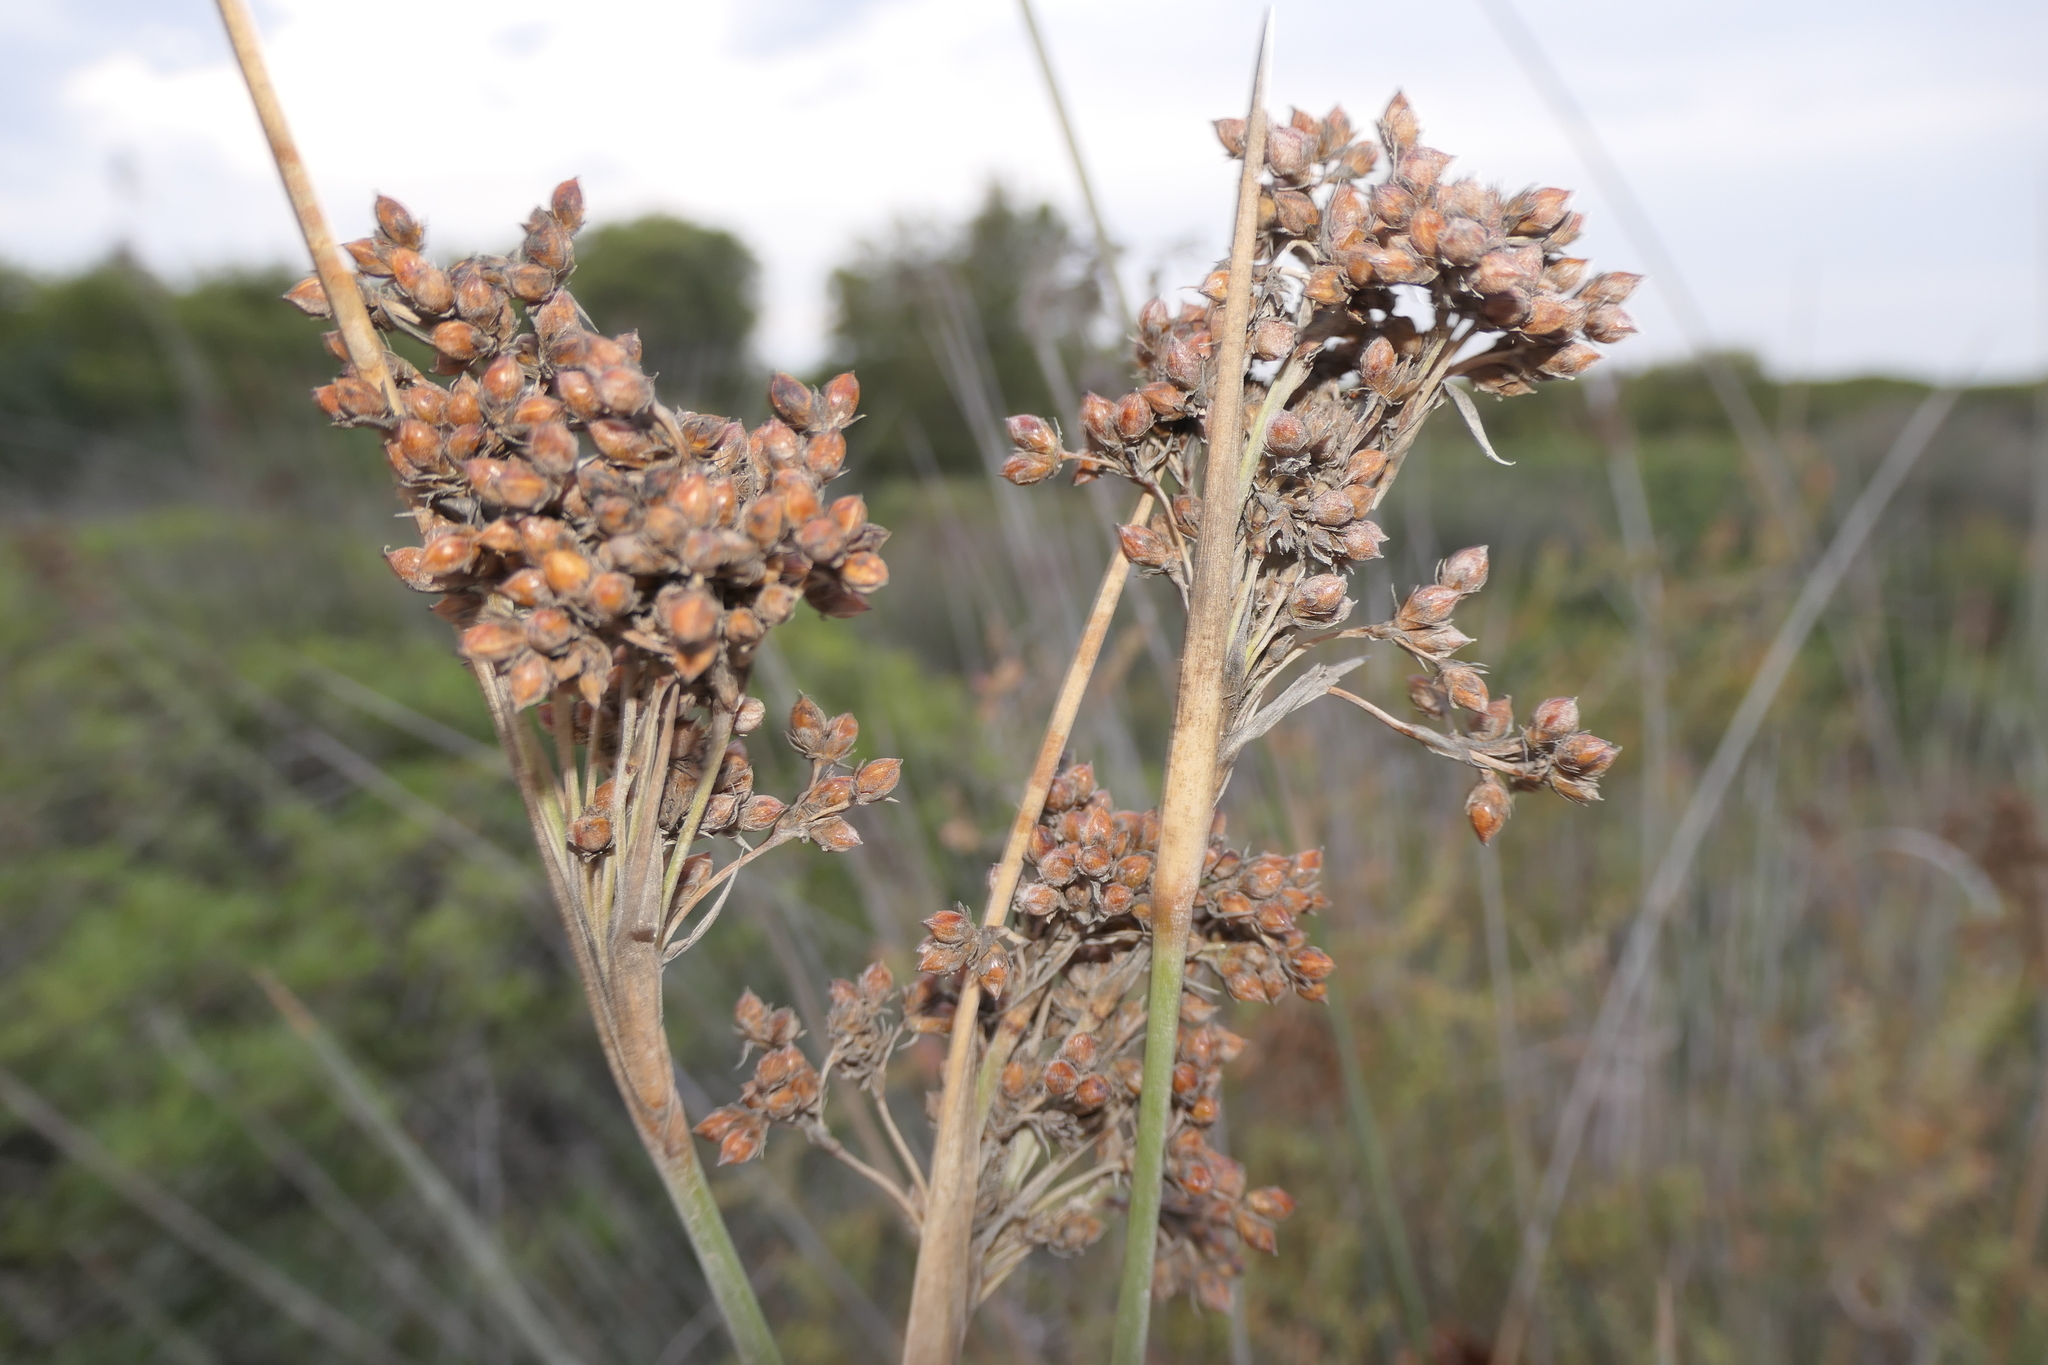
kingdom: Plantae
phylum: Tracheophyta
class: Liliopsida
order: Poales
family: Juncaceae
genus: Juncus
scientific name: Juncus acutus
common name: Sharp rush
